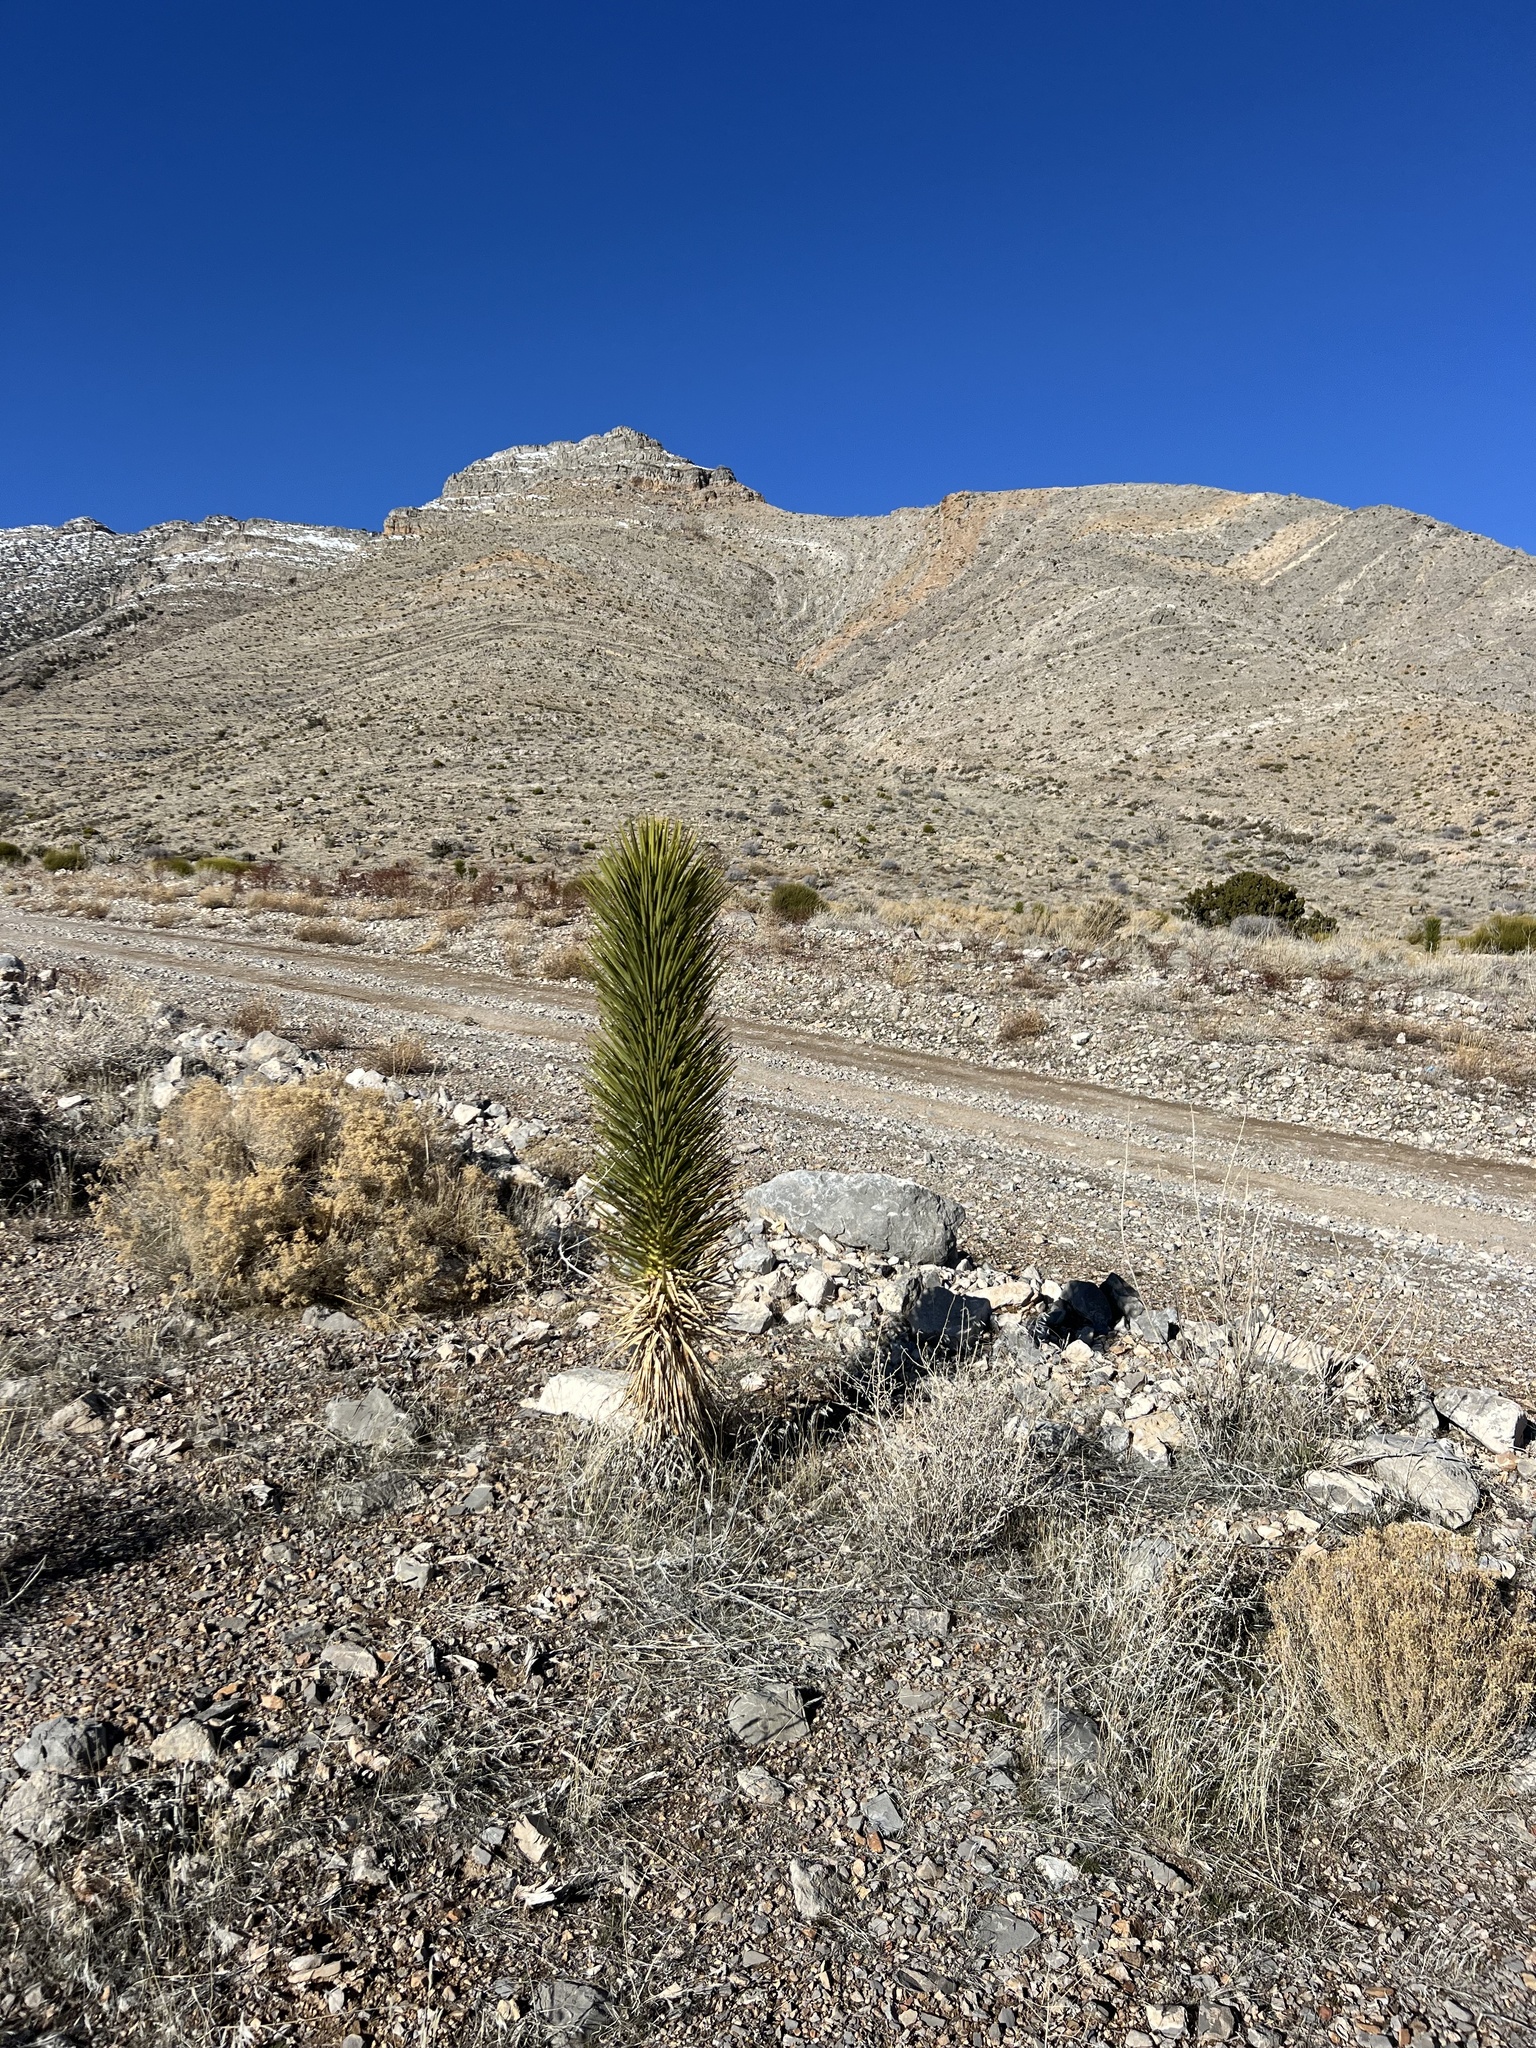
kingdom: Plantae
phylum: Tracheophyta
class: Liliopsida
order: Asparagales
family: Asparagaceae
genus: Yucca
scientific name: Yucca brevifolia
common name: Joshua tree
